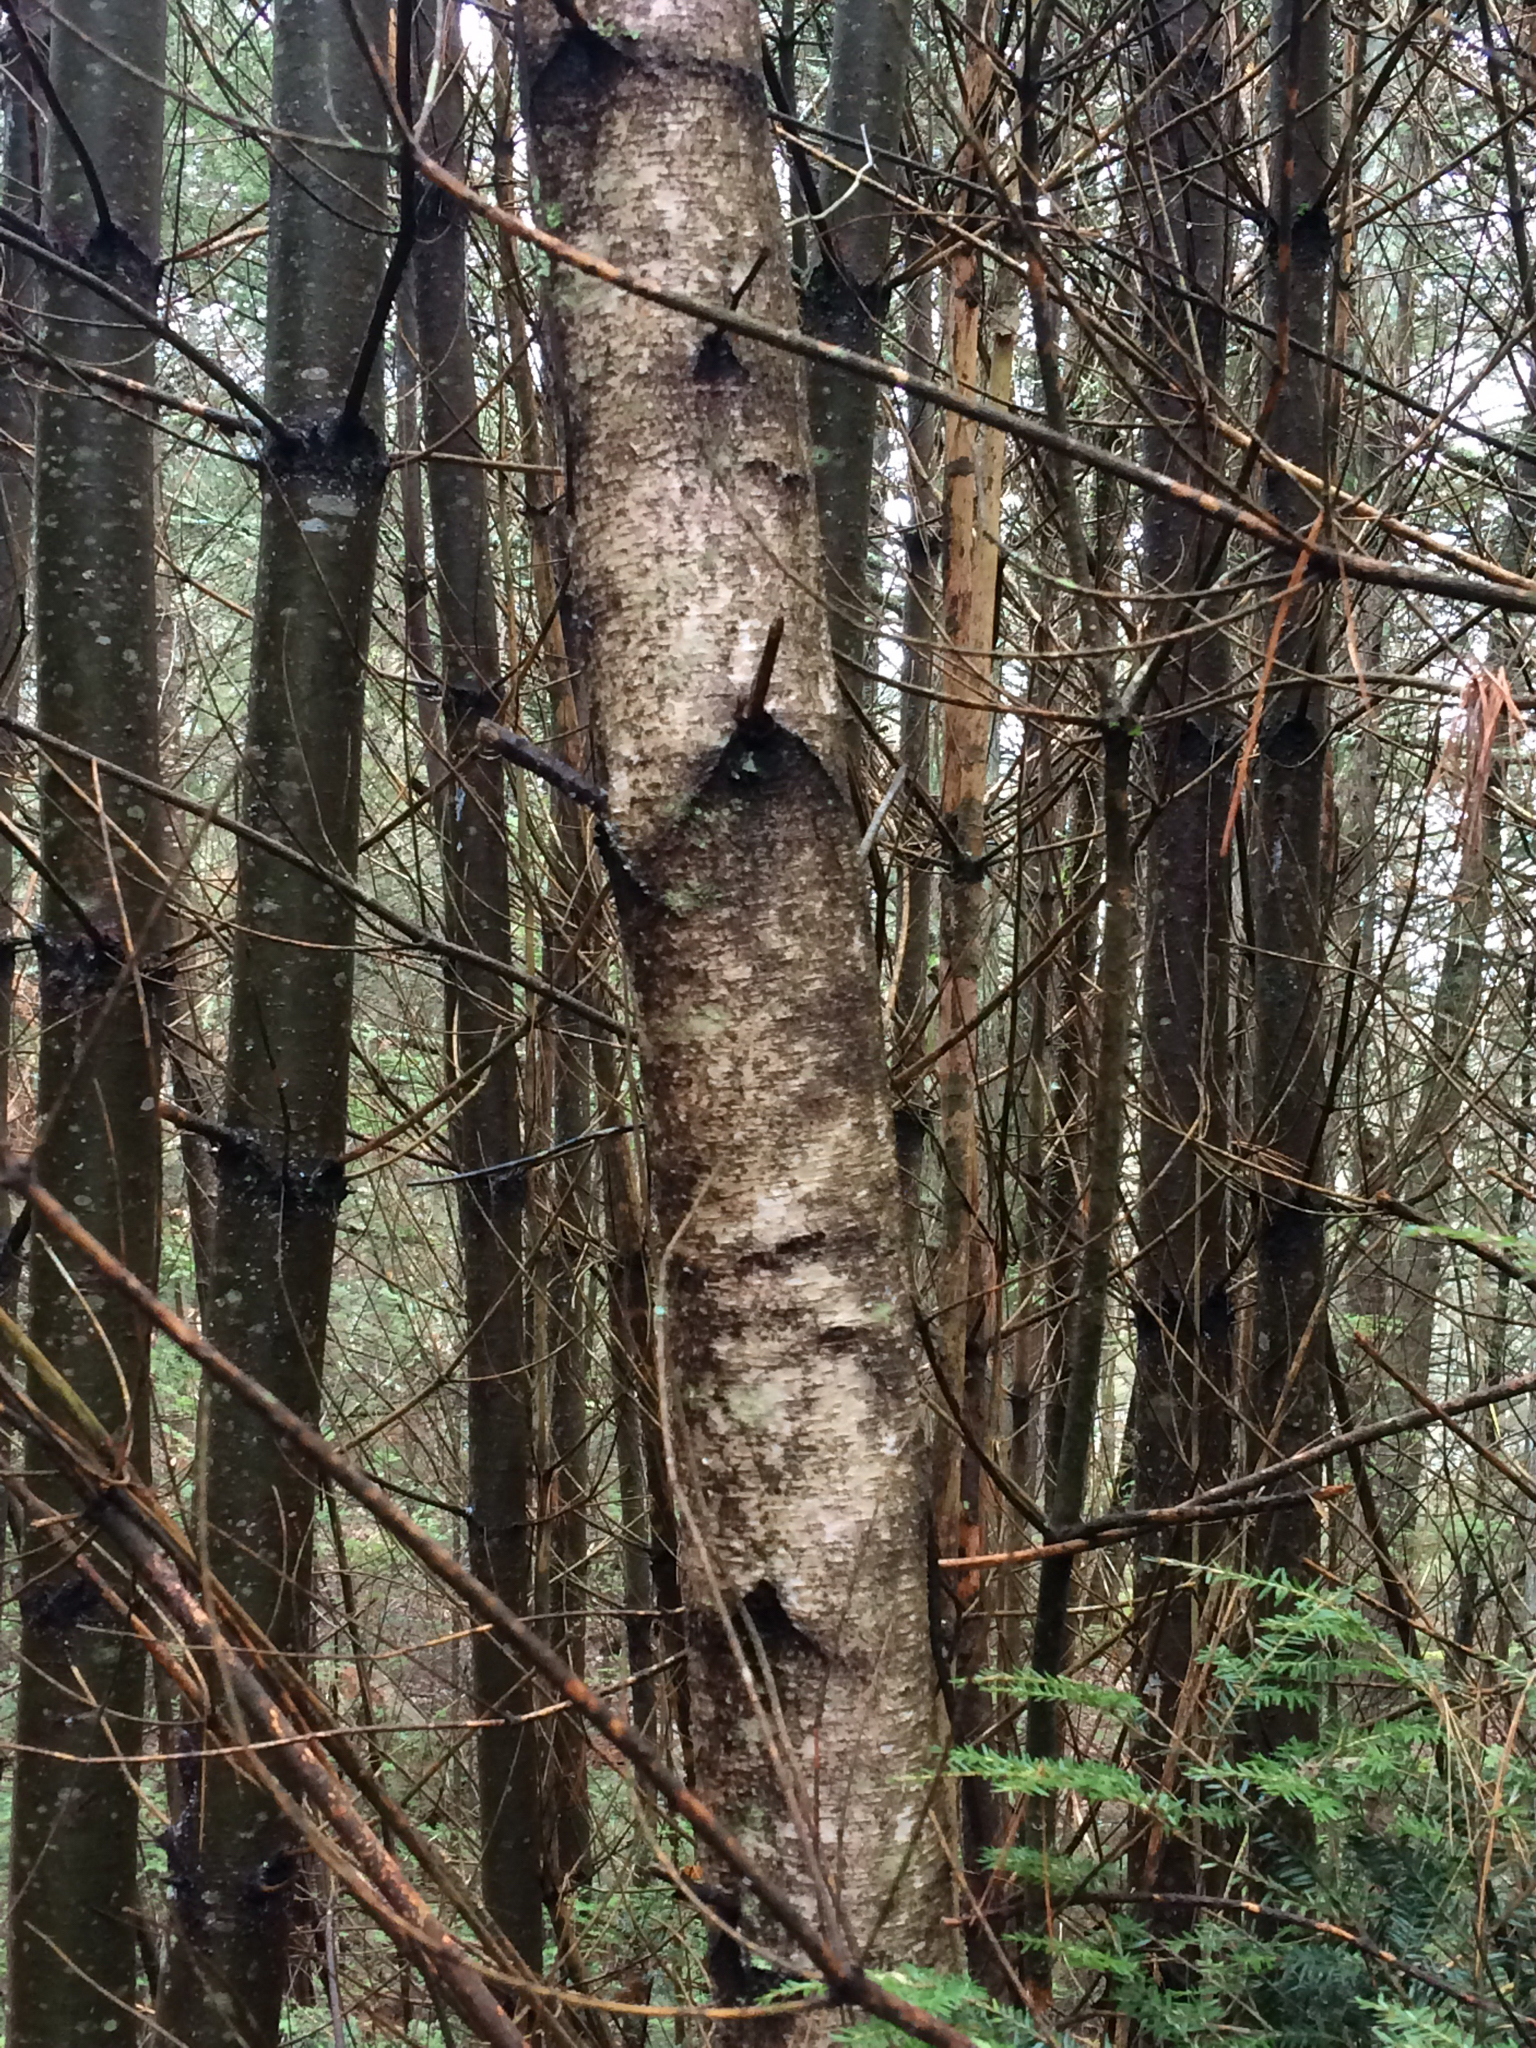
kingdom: Plantae
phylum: Tracheophyta
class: Magnoliopsida
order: Fagales
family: Betulaceae
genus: Betula
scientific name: Betula populifolia
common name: Fire birch
